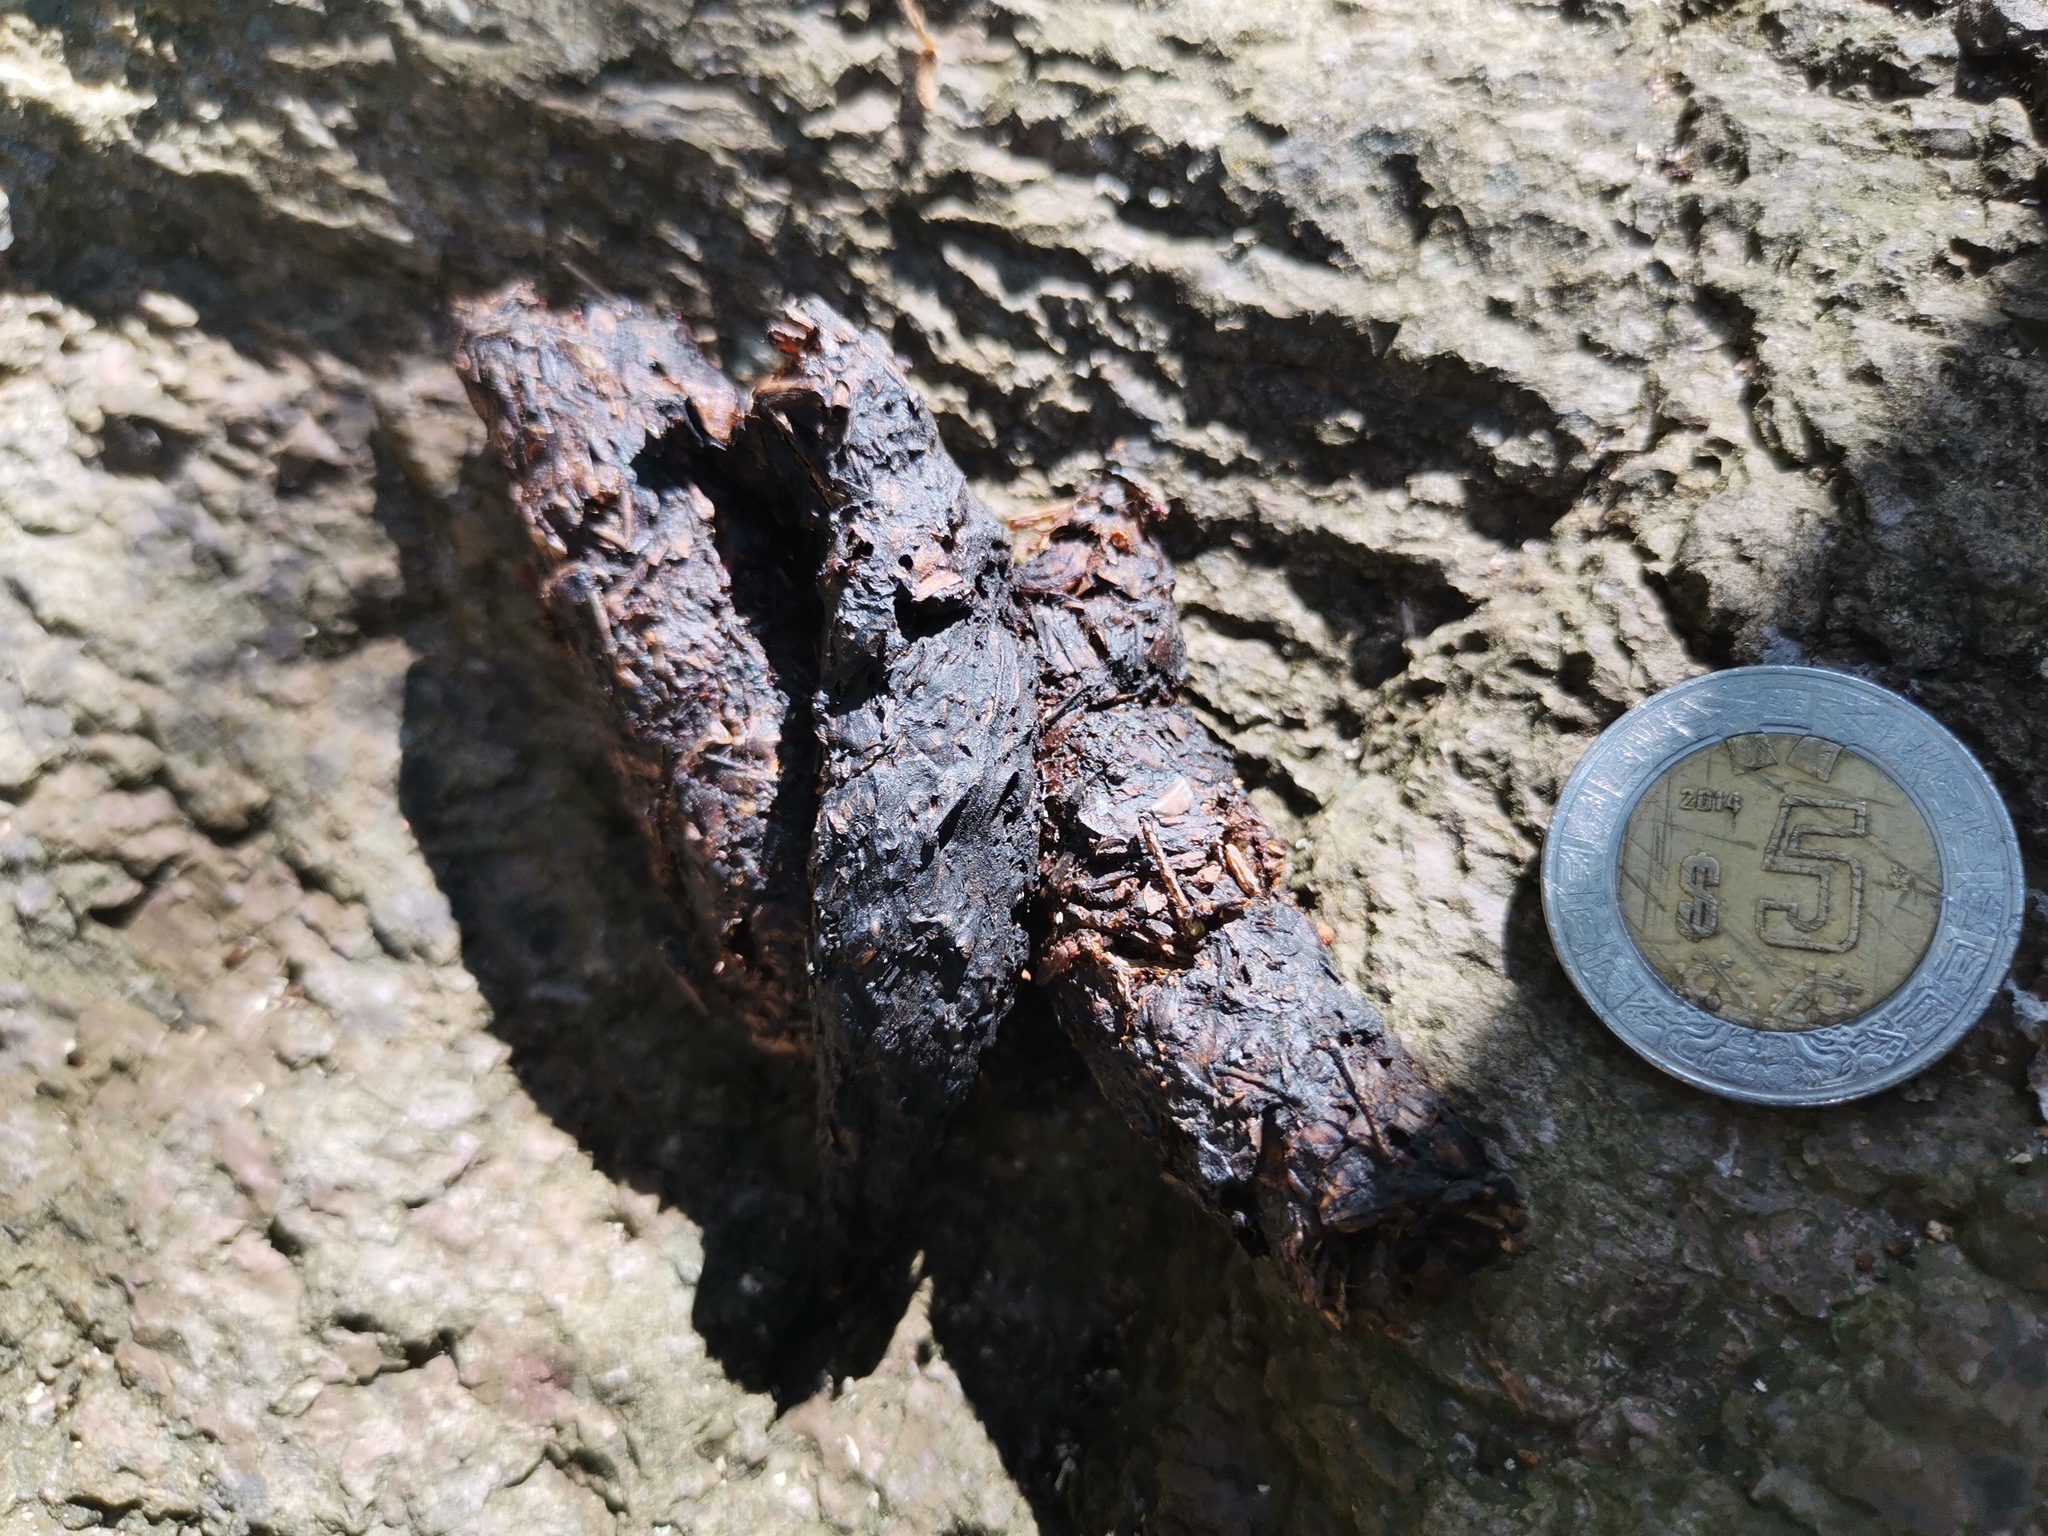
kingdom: Animalia
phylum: Chordata
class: Mammalia
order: Carnivora
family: Canidae
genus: Urocyon
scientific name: Urocyon cinereoargenteus
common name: Gray fox
